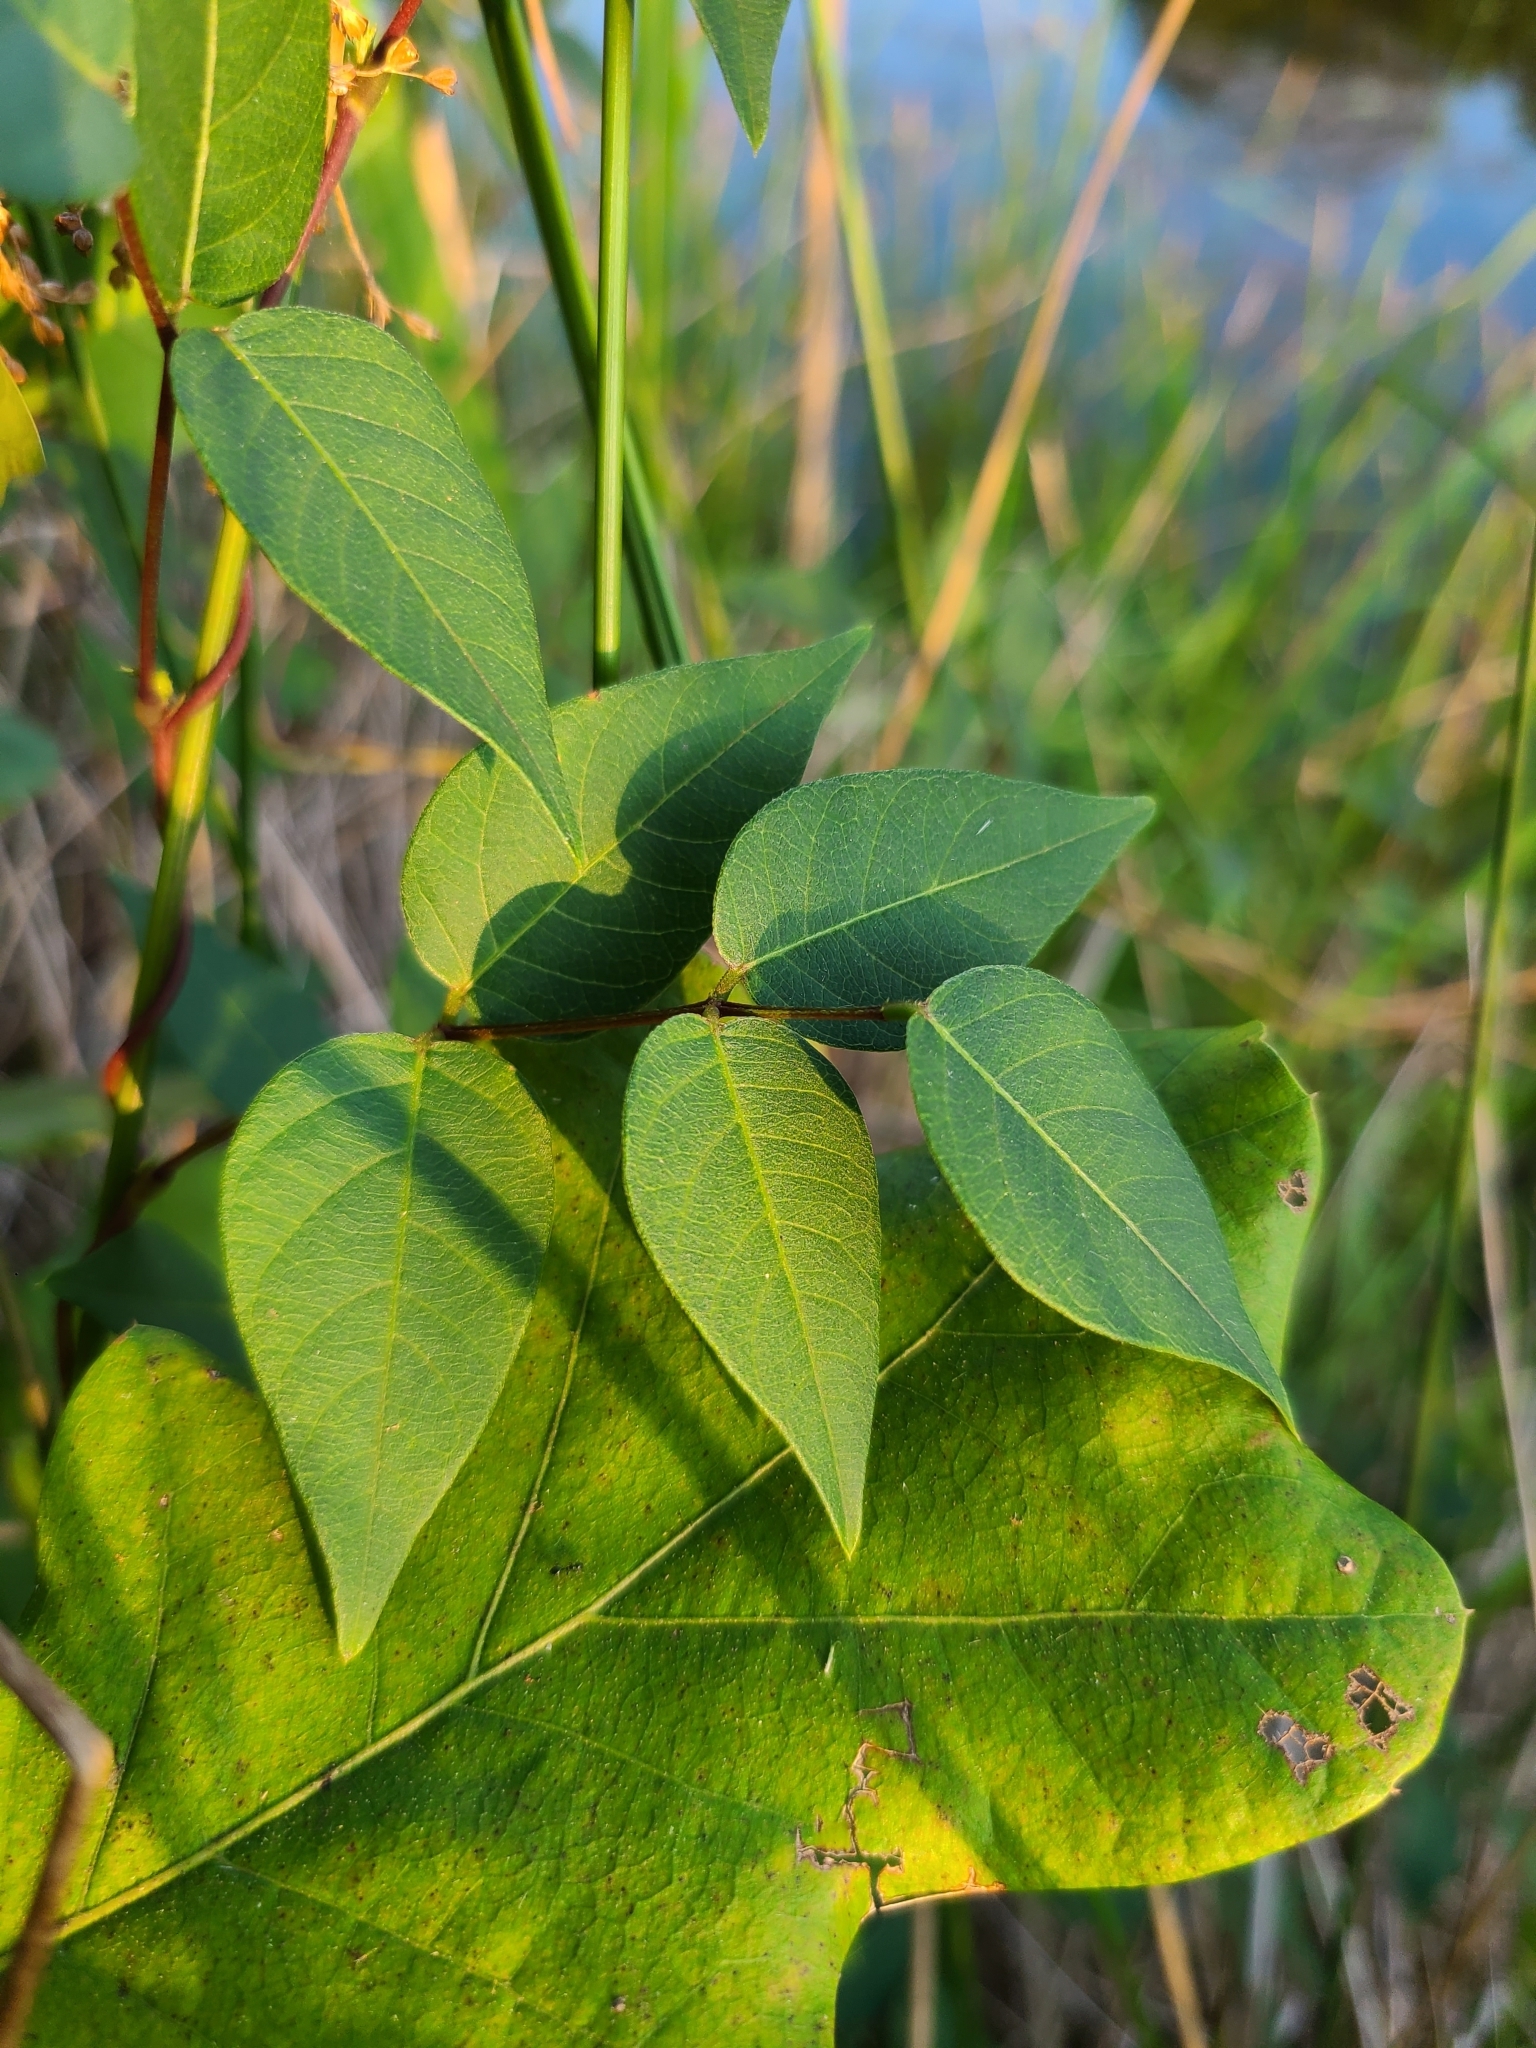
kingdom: Plantae
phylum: Tracheophyta
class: Magnoliopsida
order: Fabales
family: Fabaceae
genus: Apios
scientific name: Apios americana
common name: American potato-bean
